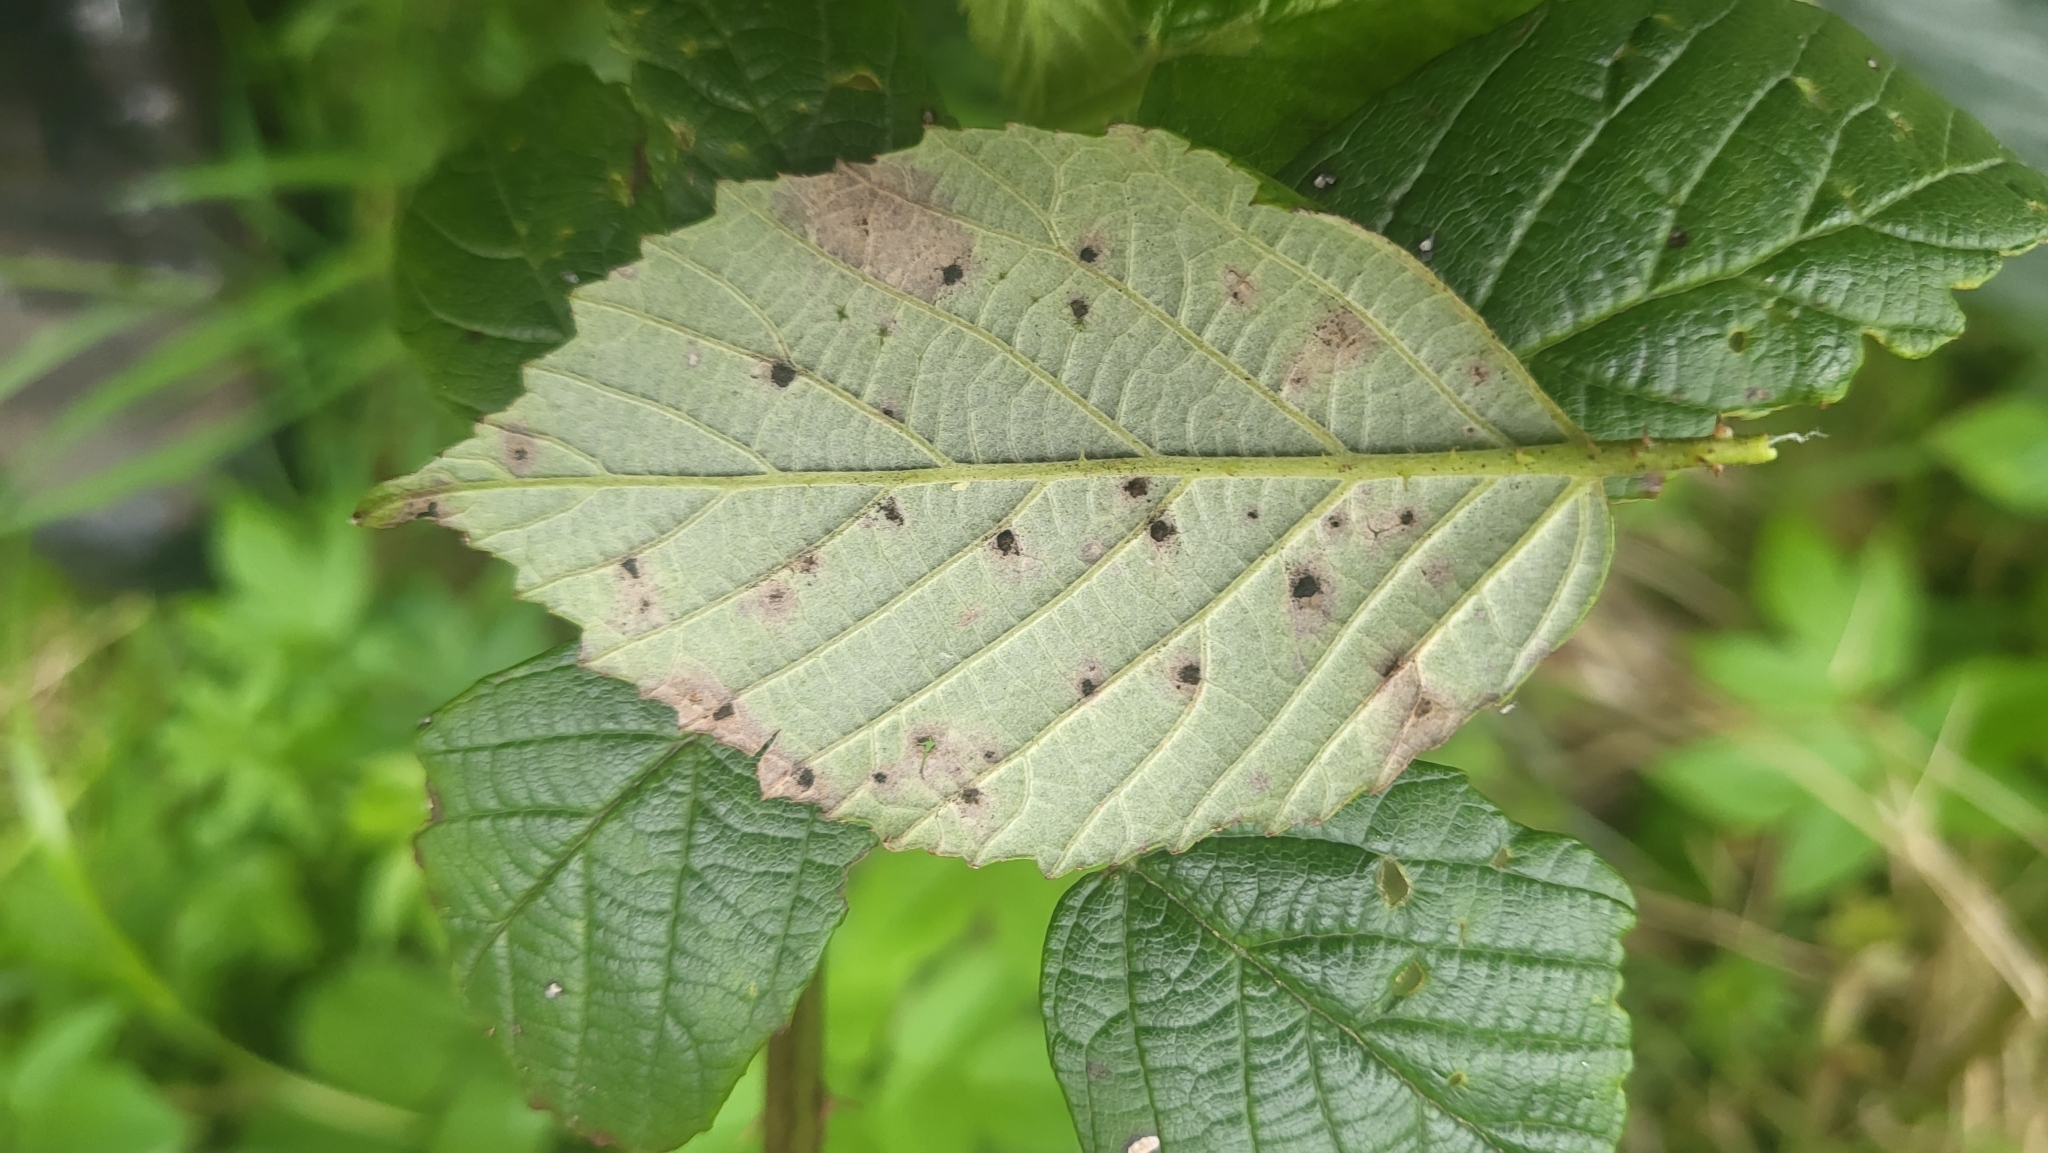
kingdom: Fungi
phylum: Basidiomycota
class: Pucciniomycetes
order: Pucciniales
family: Phragmidiaceae
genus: Phragmidium
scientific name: Phragmidium violaceum
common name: Violet bramble rust
